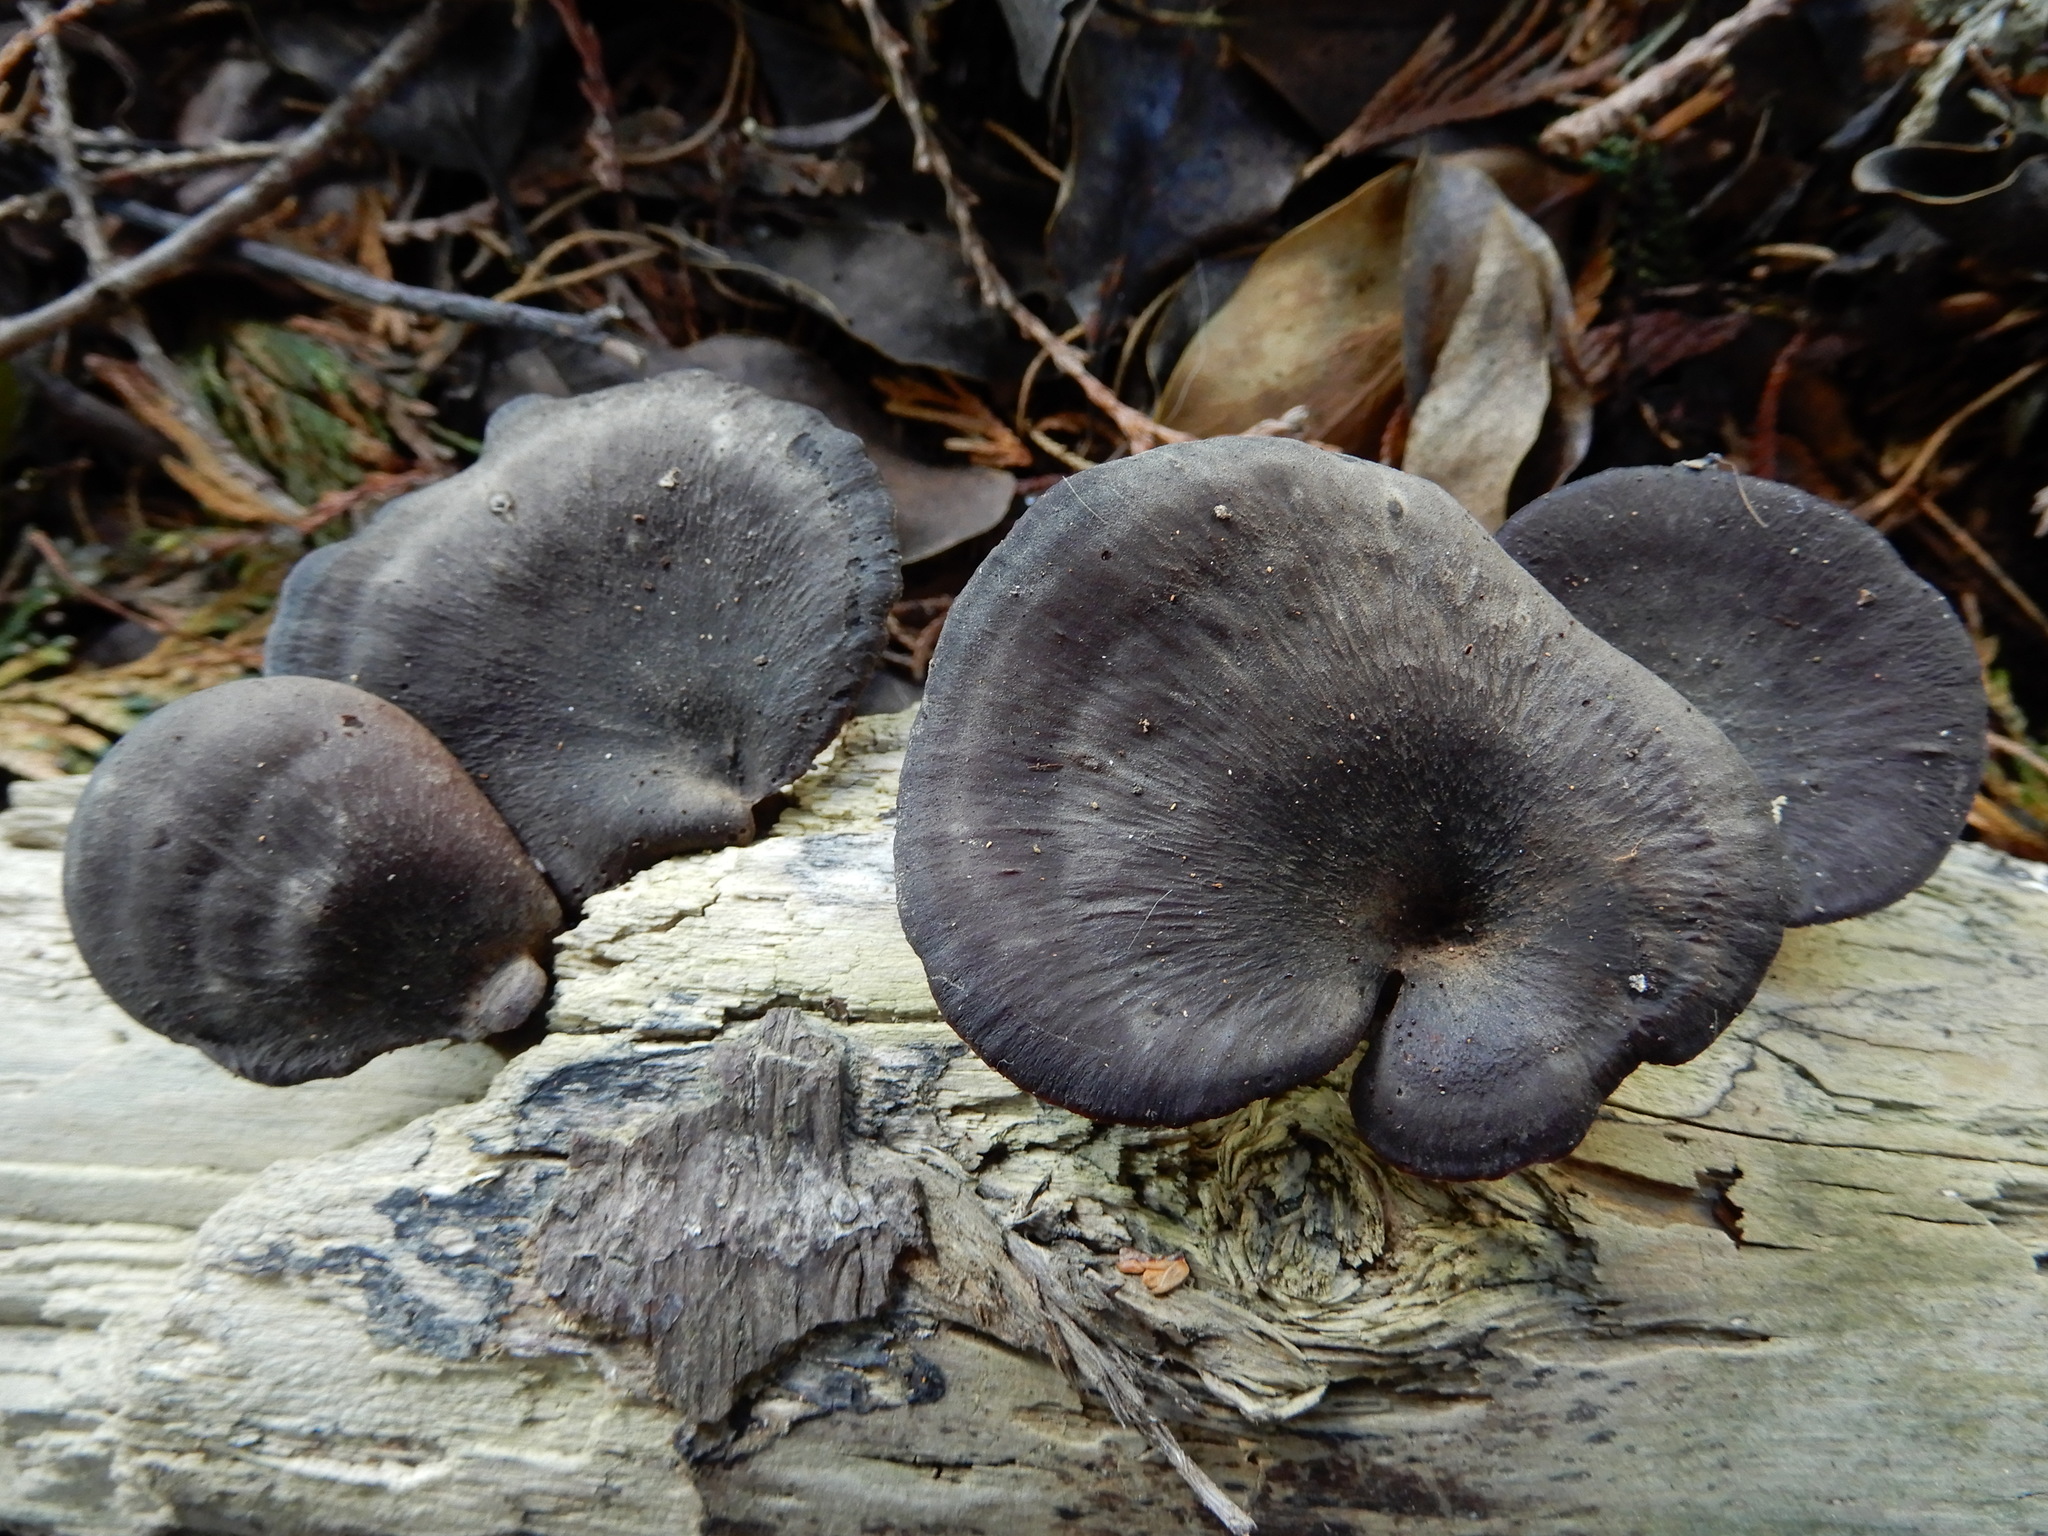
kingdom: Fungi
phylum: Basidiomycota
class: Agaricomycetes
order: Polyporales
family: Polyporaceae
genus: Picipes
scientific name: Picipes dictyopus
